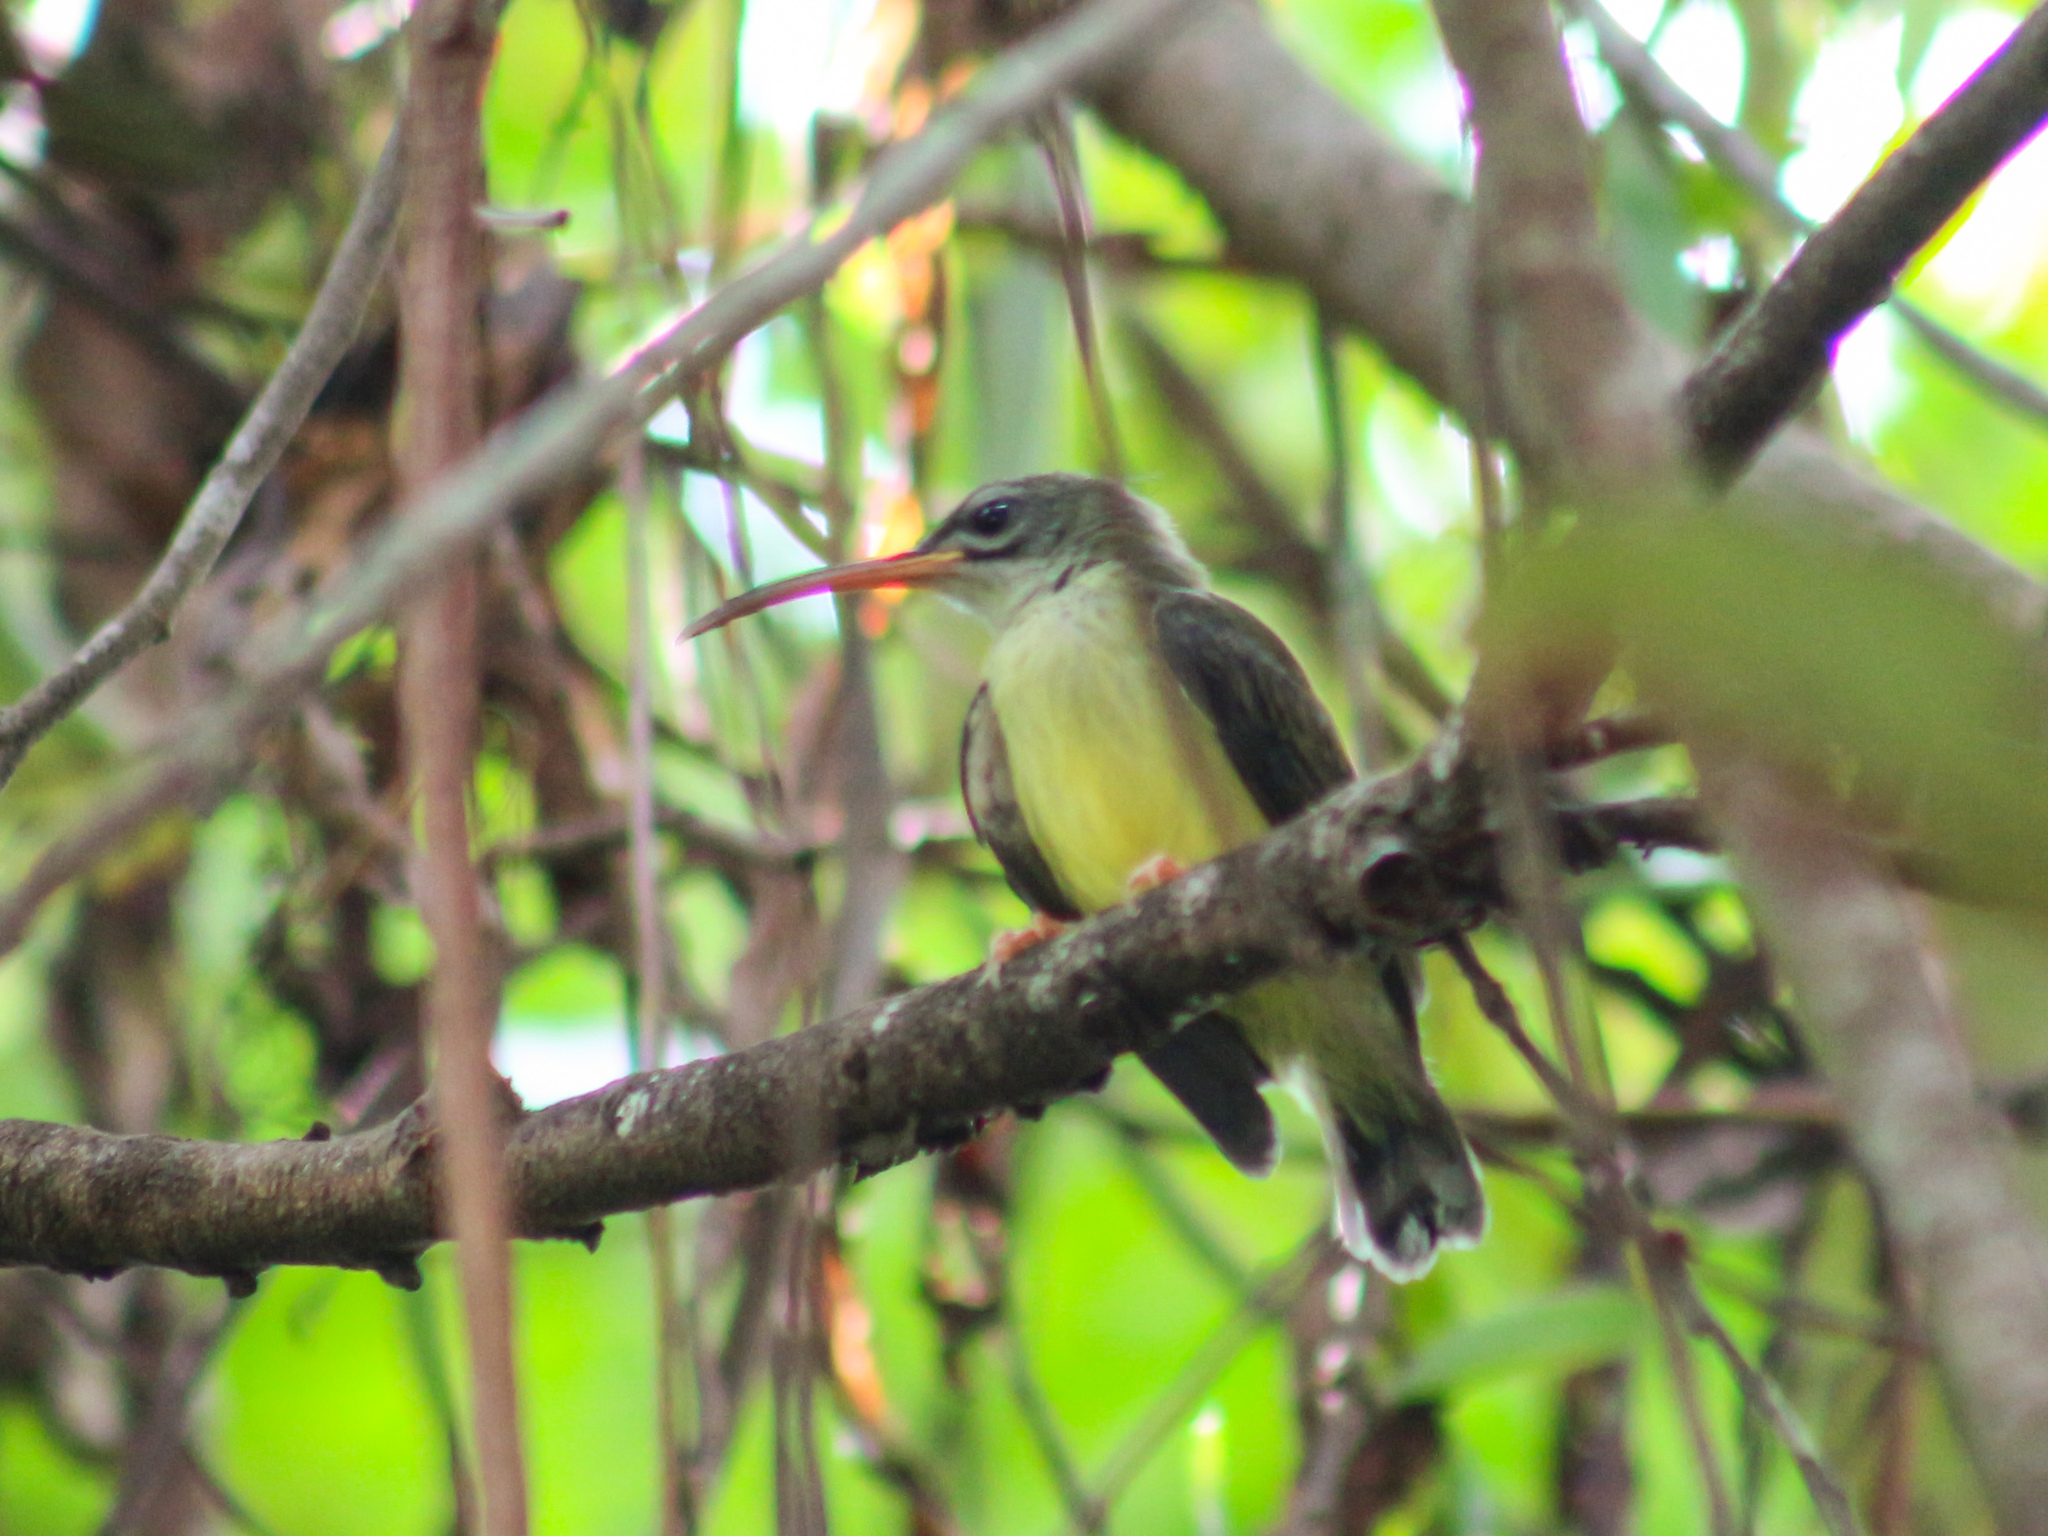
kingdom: Animalia
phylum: Chordata
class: Aves
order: Passeriformes
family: Nectariniidae
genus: Arachnothera
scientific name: Arachnothera longirostra
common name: Little spiderhunter
